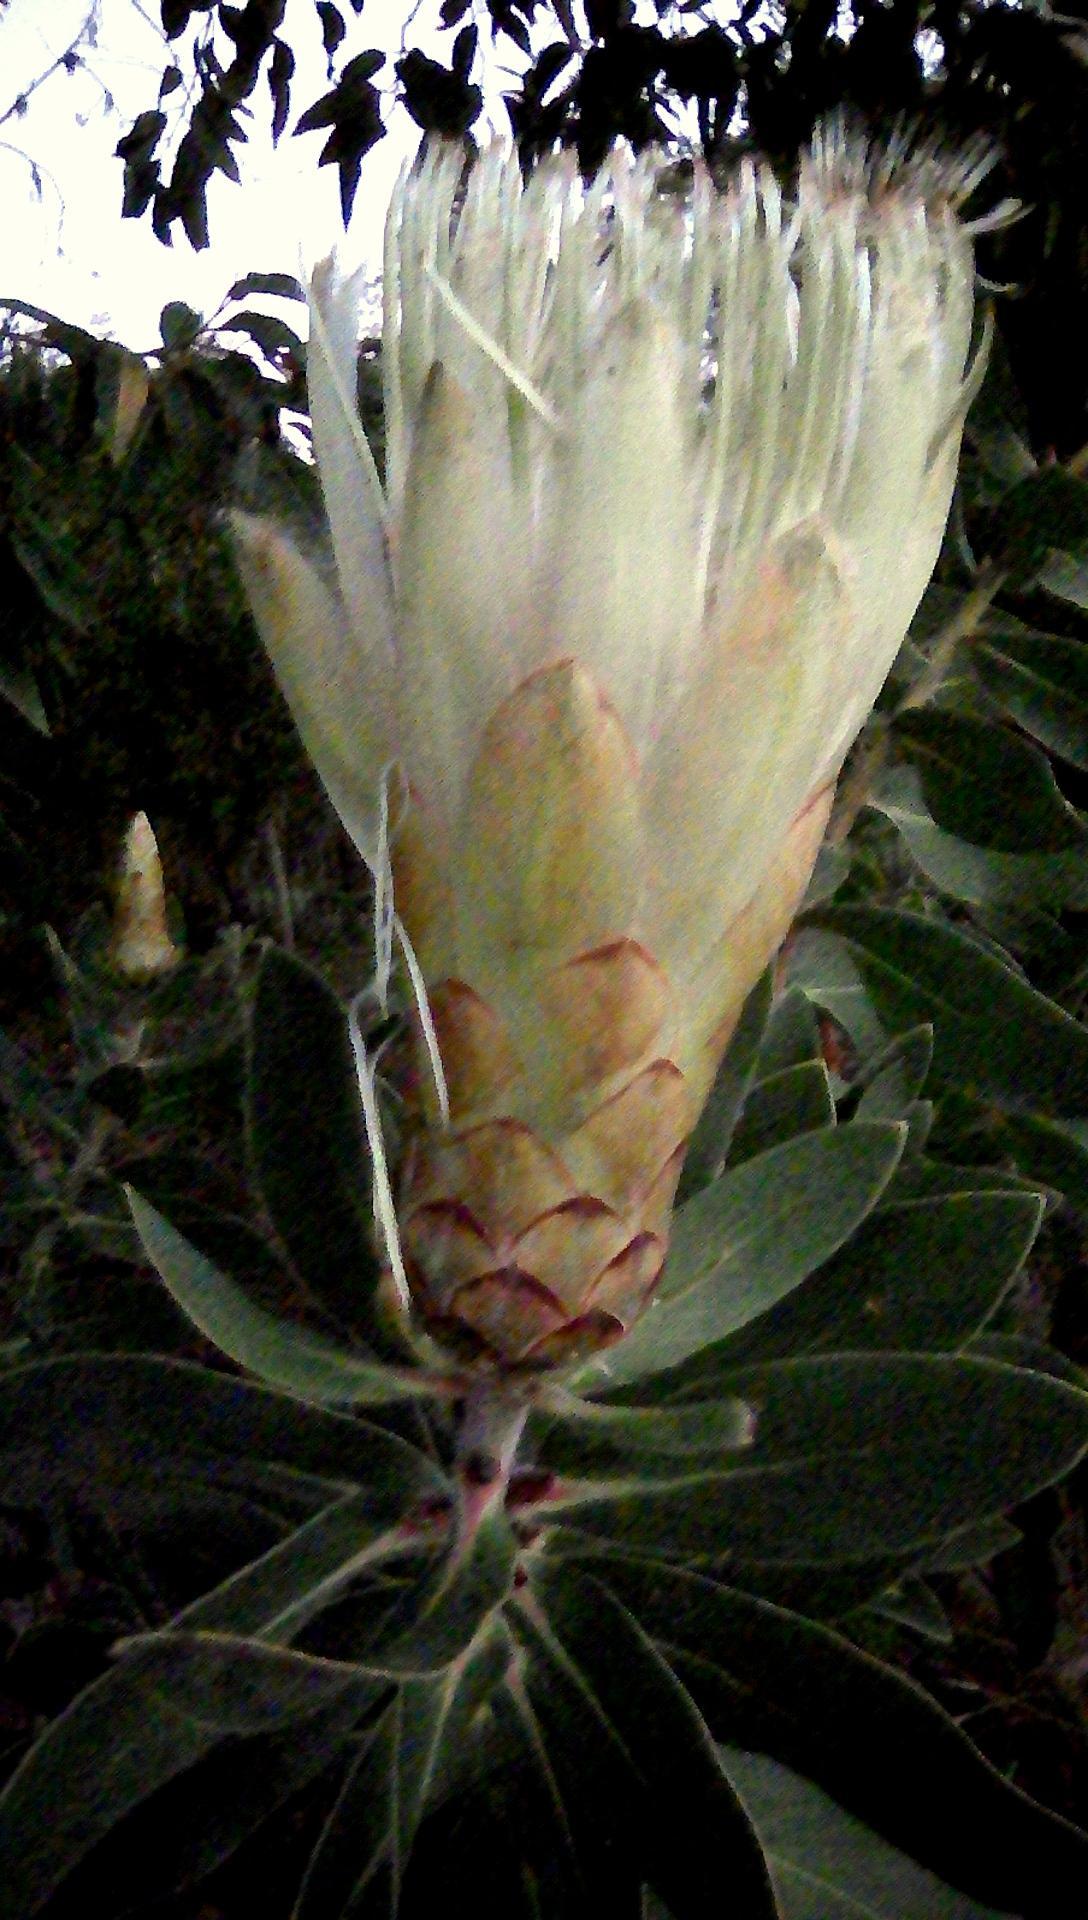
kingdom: Plantae
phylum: Tracheophyta
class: Magnoliopsida
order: Proteales
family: Proteaceae
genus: Protea
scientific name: Protea aurea
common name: Shuttlecock sugarbush
